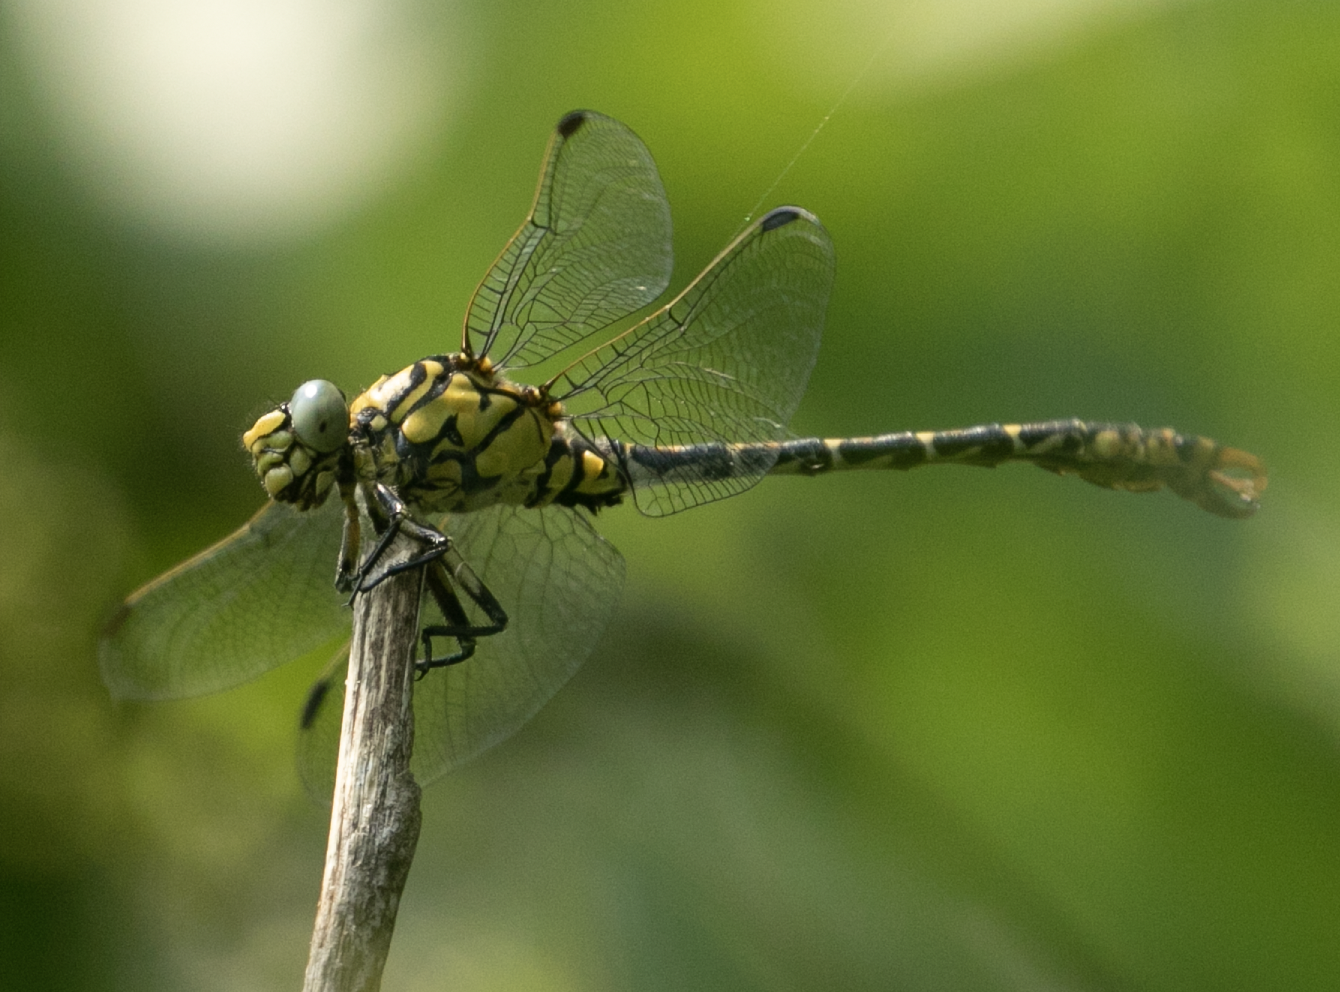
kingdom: Animalia
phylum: Arthropoda
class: Insecta
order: Odonata
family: Gomphidae
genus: Onychogomphus
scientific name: Onychogomphus forcipatus
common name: Small pincertail
